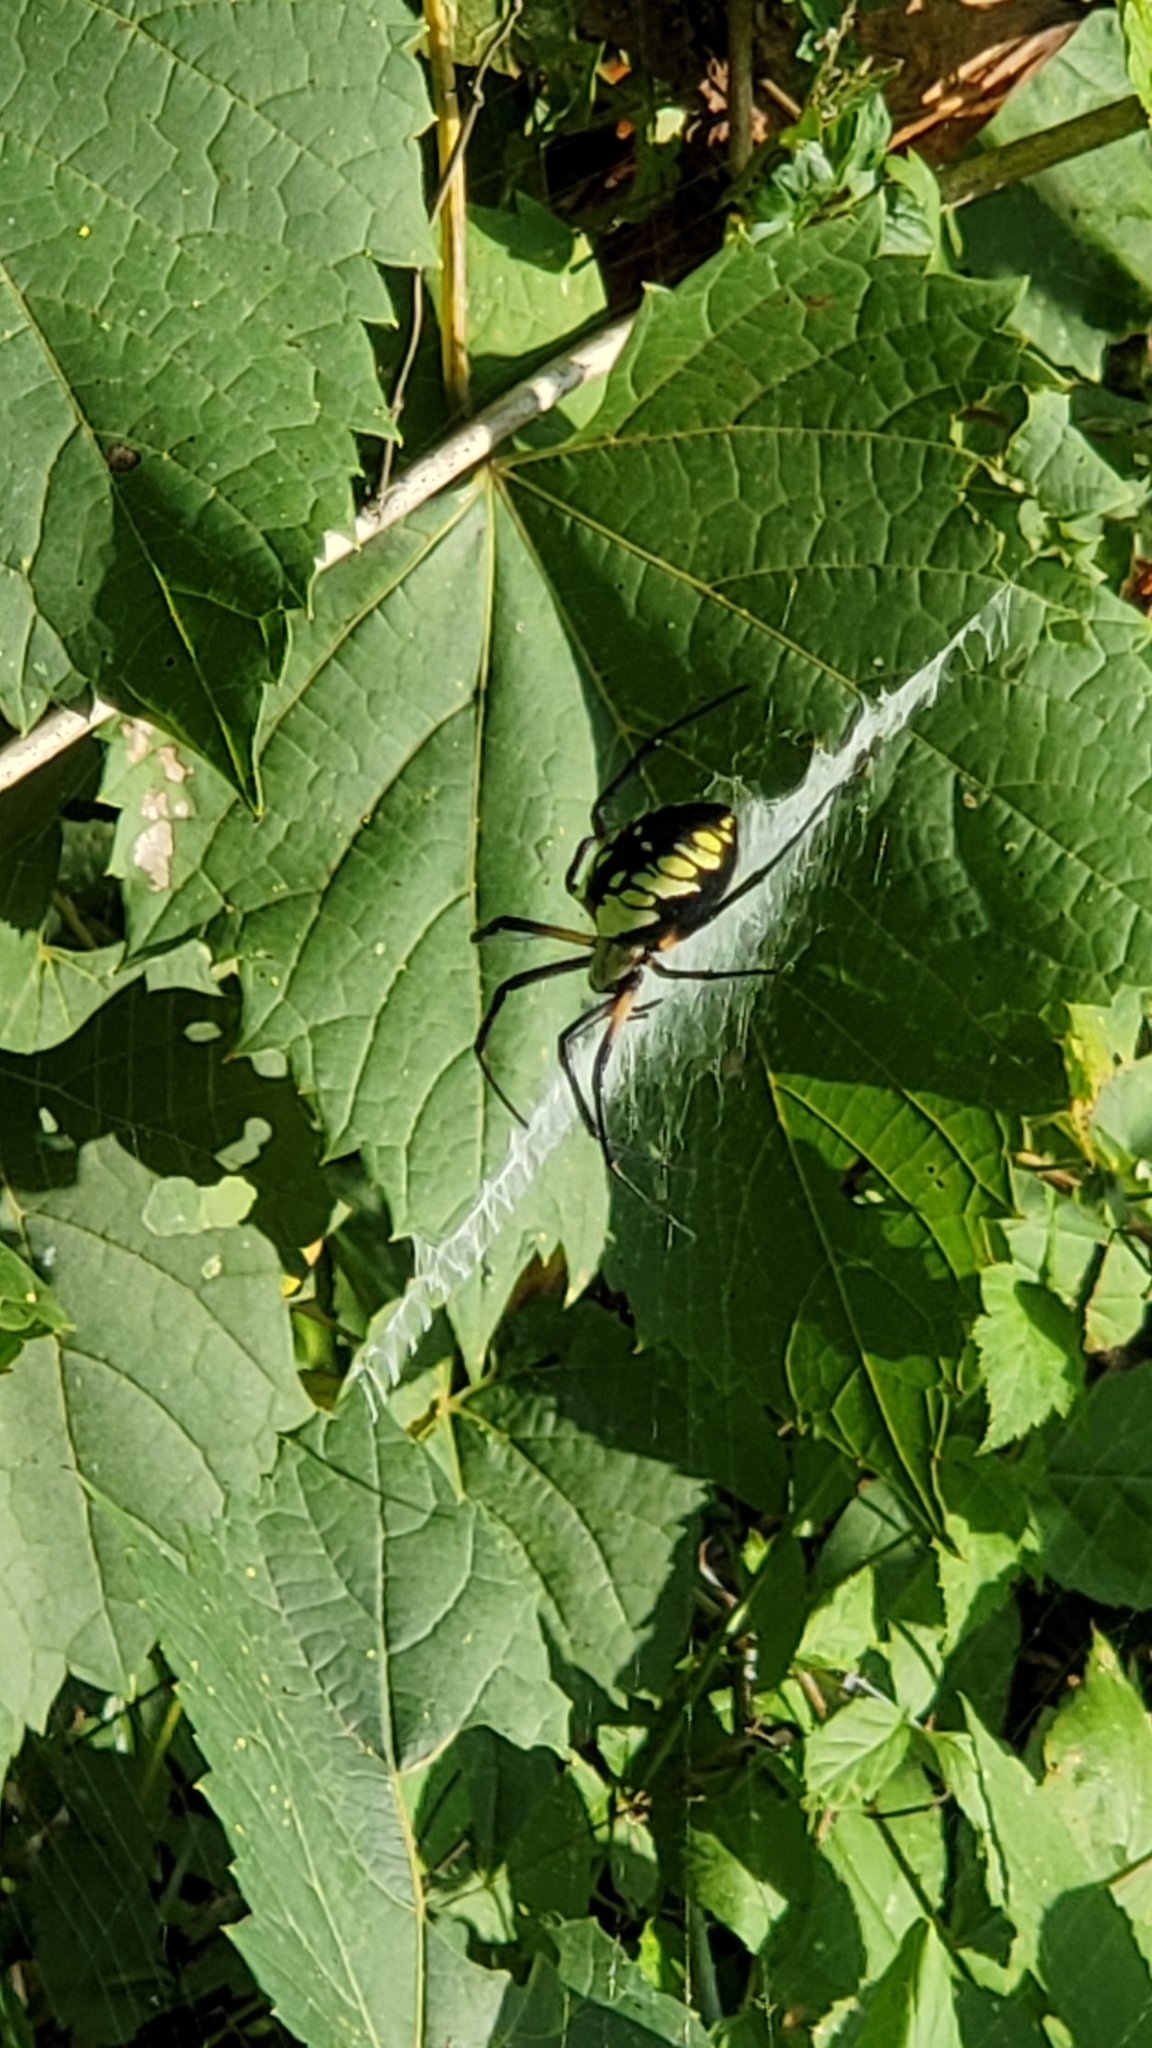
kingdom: Animalia
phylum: Arthropoda
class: Arachnida
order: Araneae
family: Araneidae
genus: Argiope
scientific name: Argiope aurantia
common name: Orb weavers
